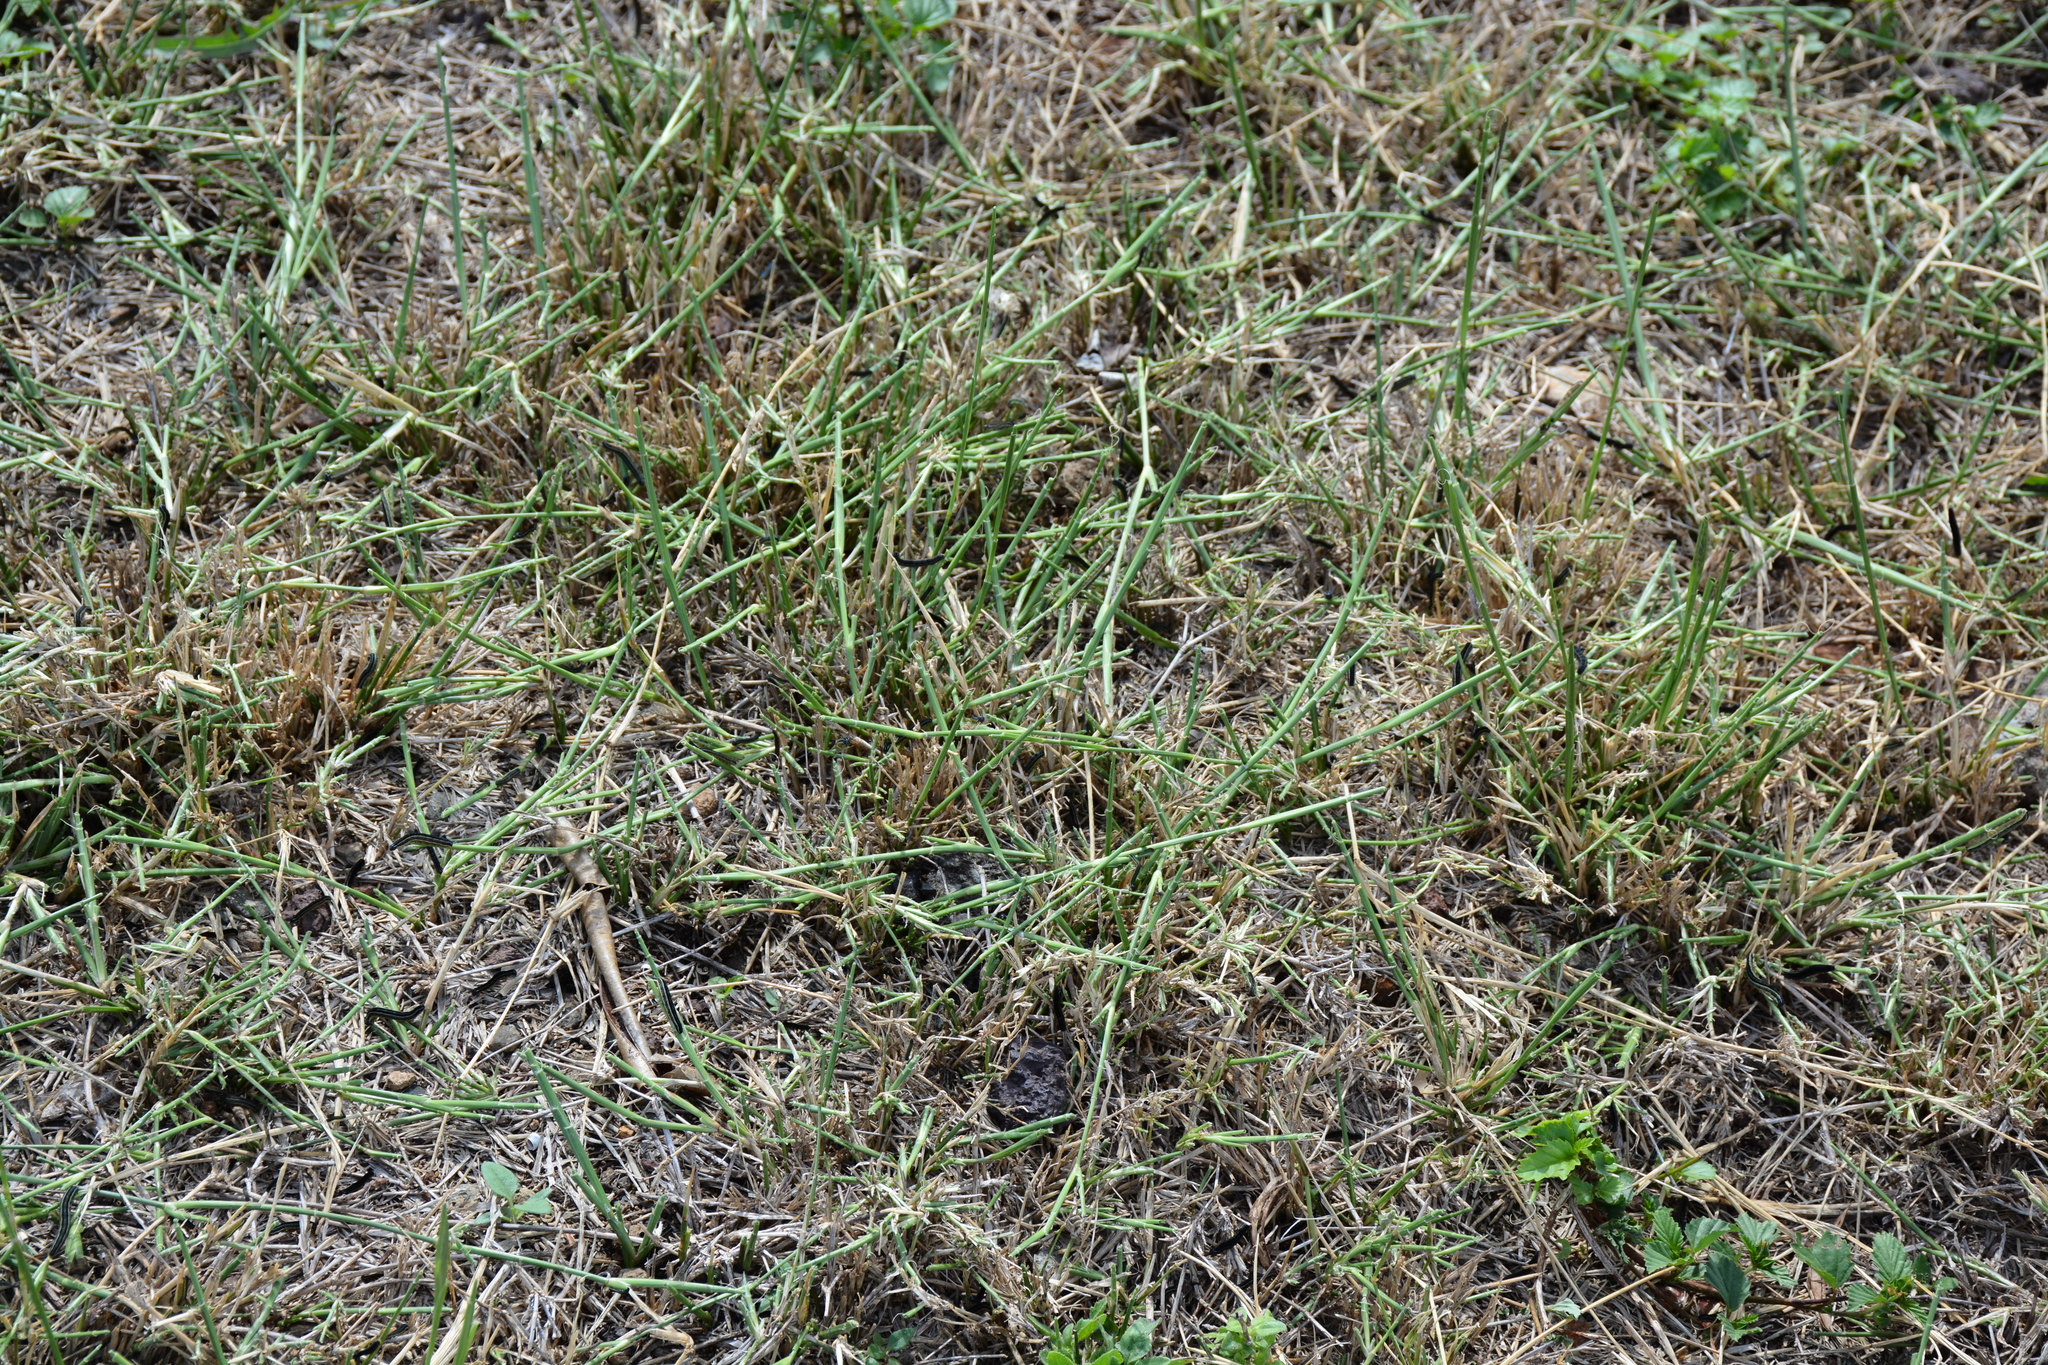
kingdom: Animalia
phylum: Arthropoda
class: Insecta
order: Lepidoptera
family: Noctuidae
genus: Spodoptera
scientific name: Spodoptera exempta
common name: African armyworm
